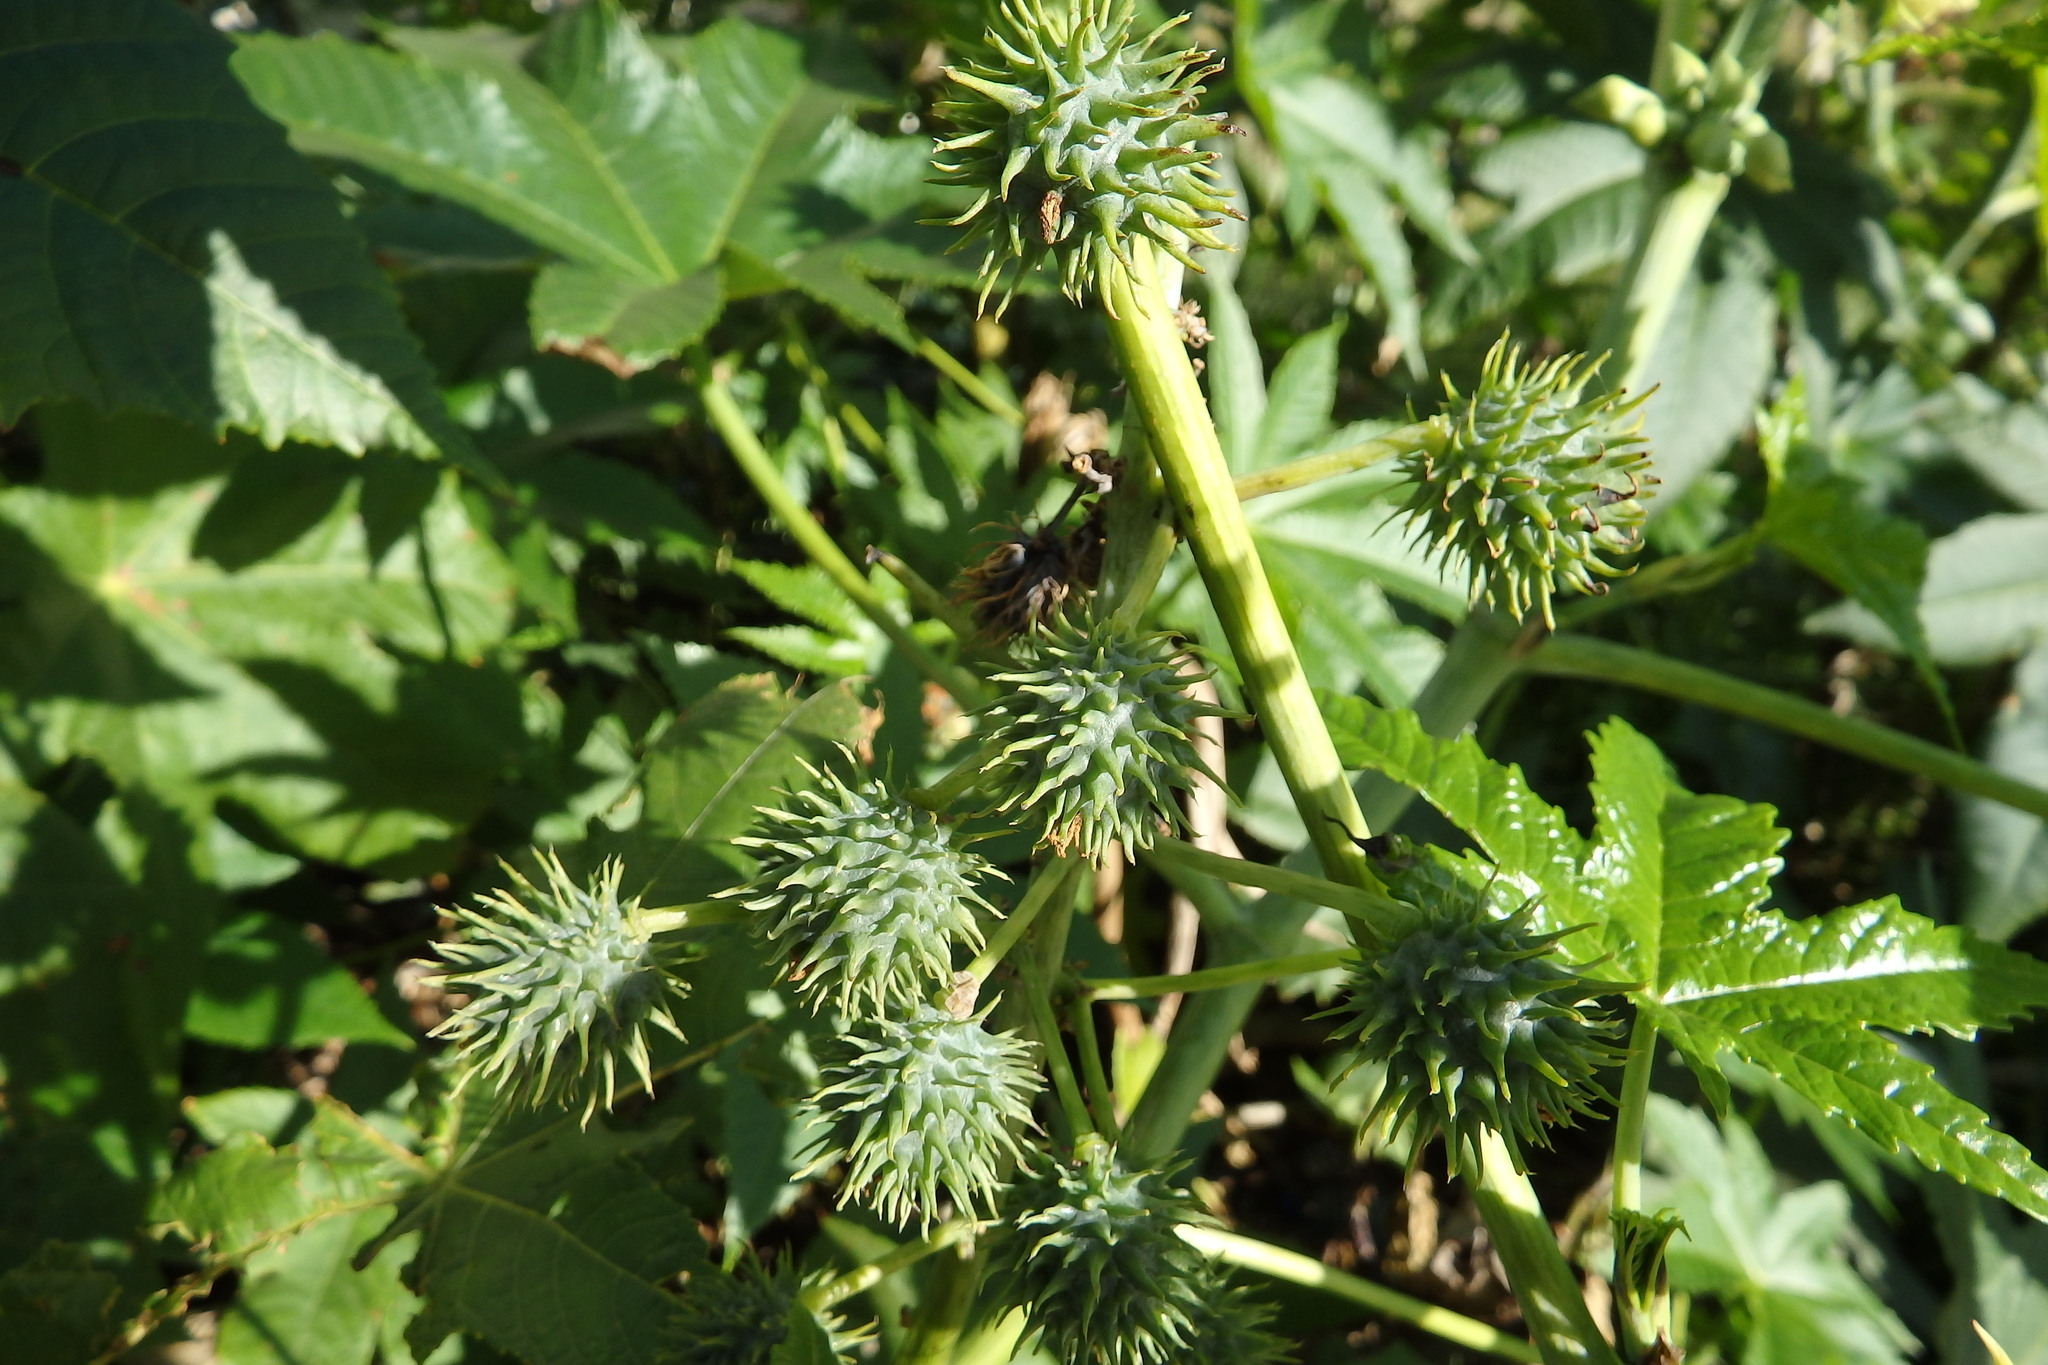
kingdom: Plantae
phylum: Tracheophyta
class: Magnoliopsida
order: Malpighiales
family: Euphorbiaceae
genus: Ricinus
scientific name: Ricinus communis
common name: Castor-oil-plant
